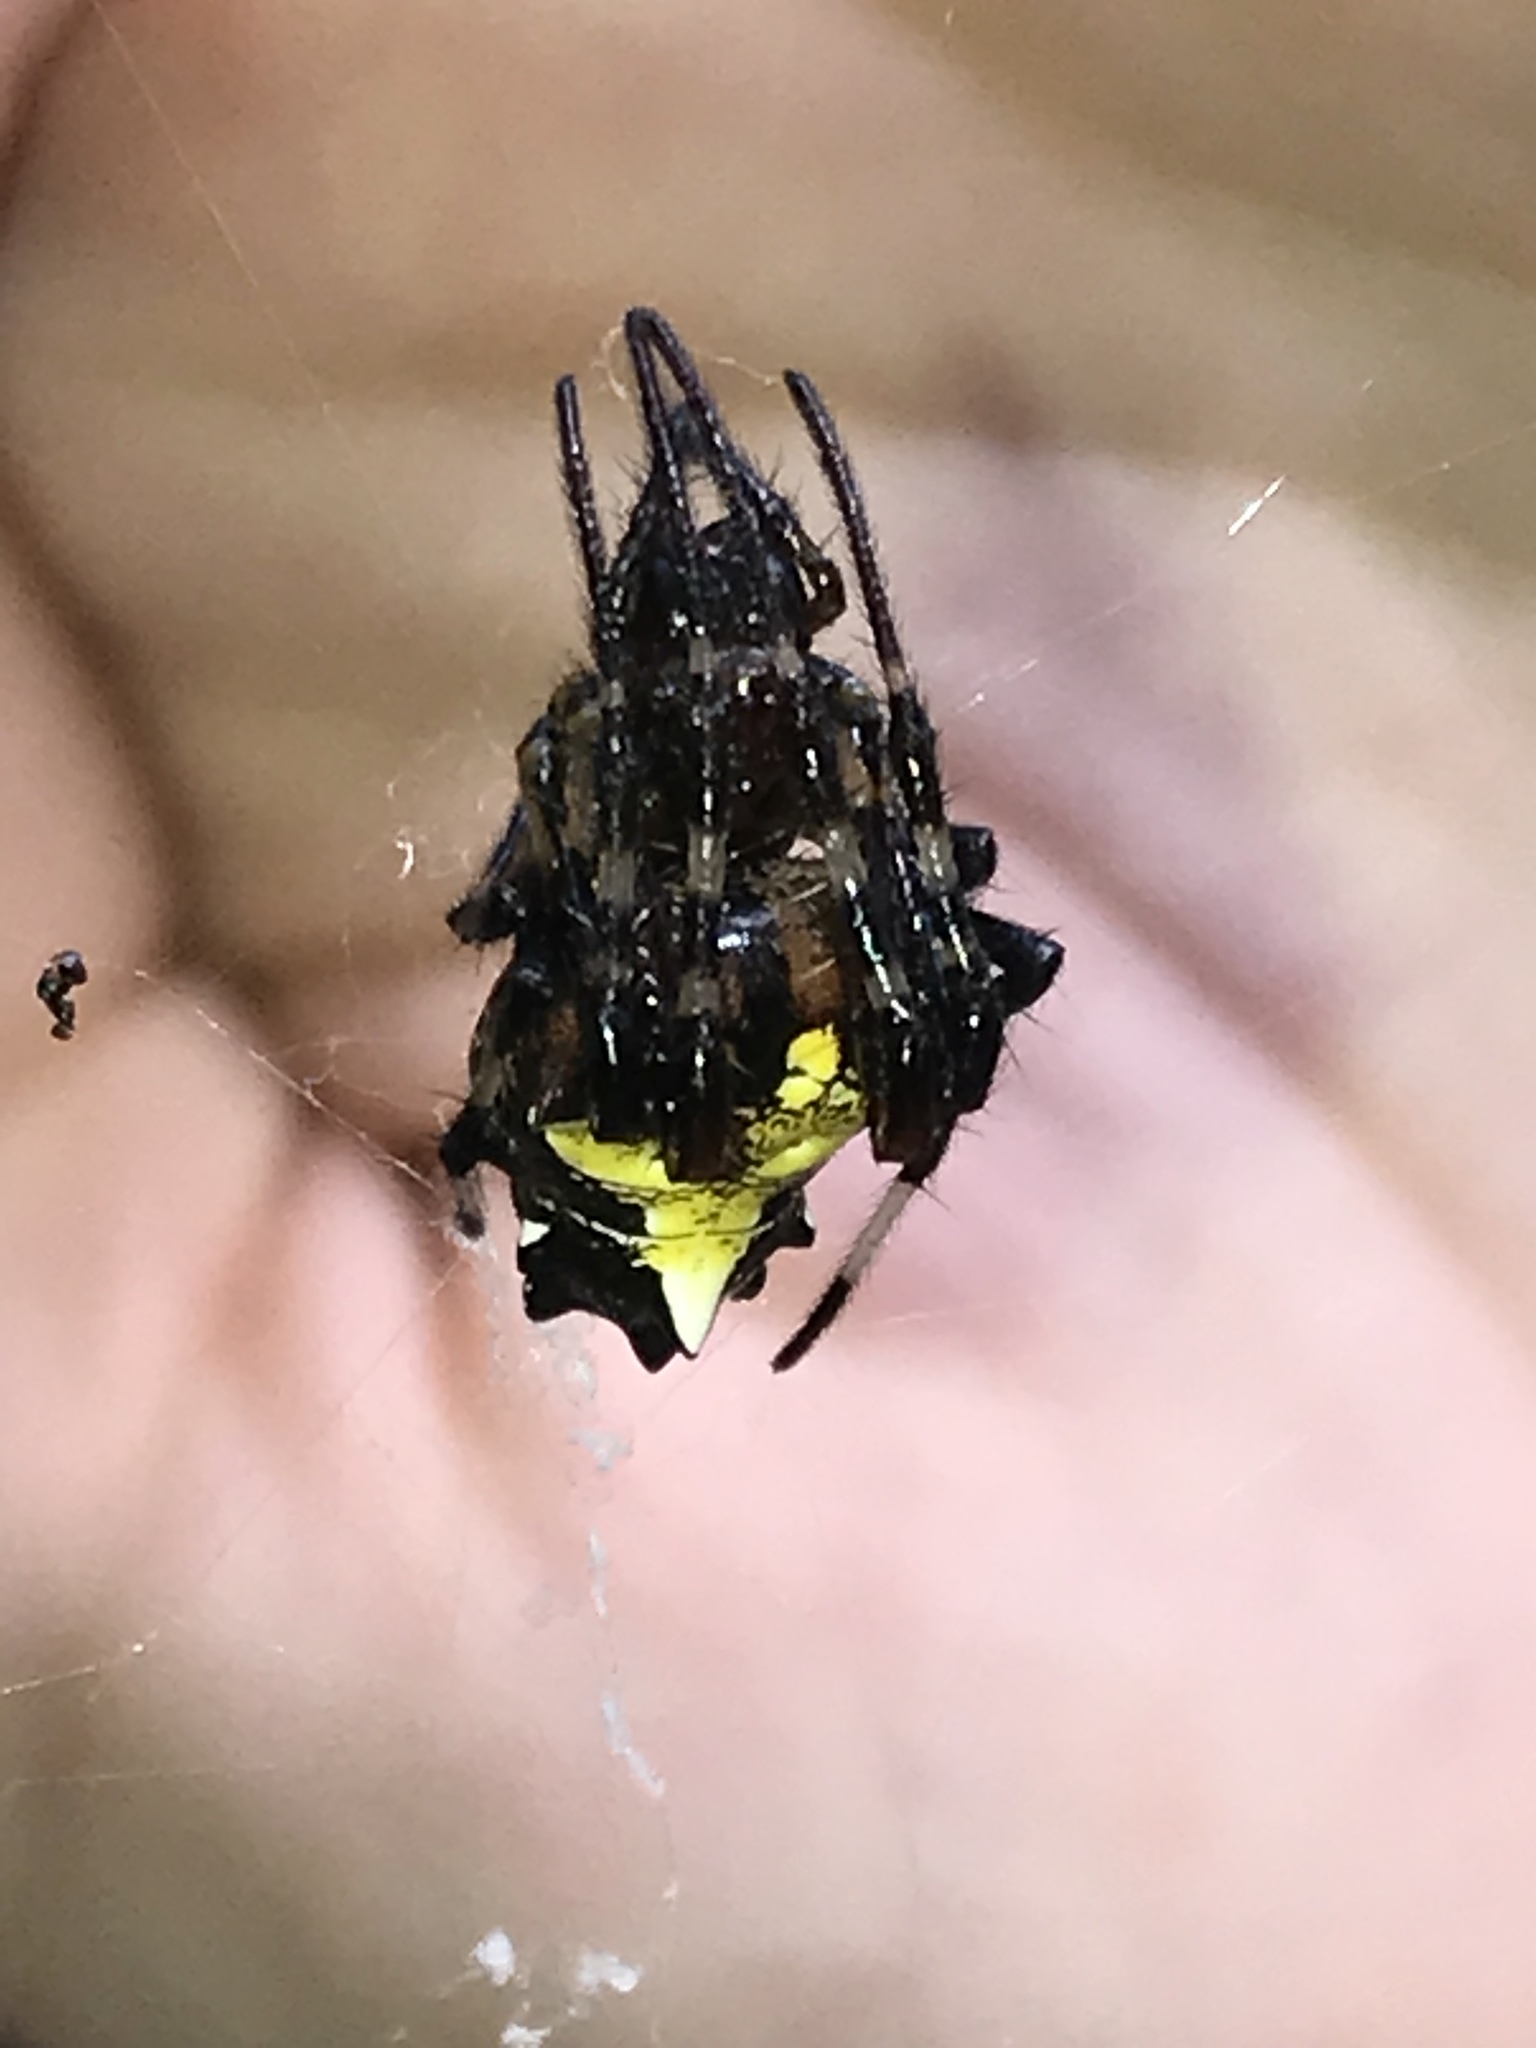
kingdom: Animalia
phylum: Arthropoda
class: Arachnida
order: Araneae
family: Araneidae
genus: Verrucosa
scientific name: Verrucosa arenata
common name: Orb weavers
